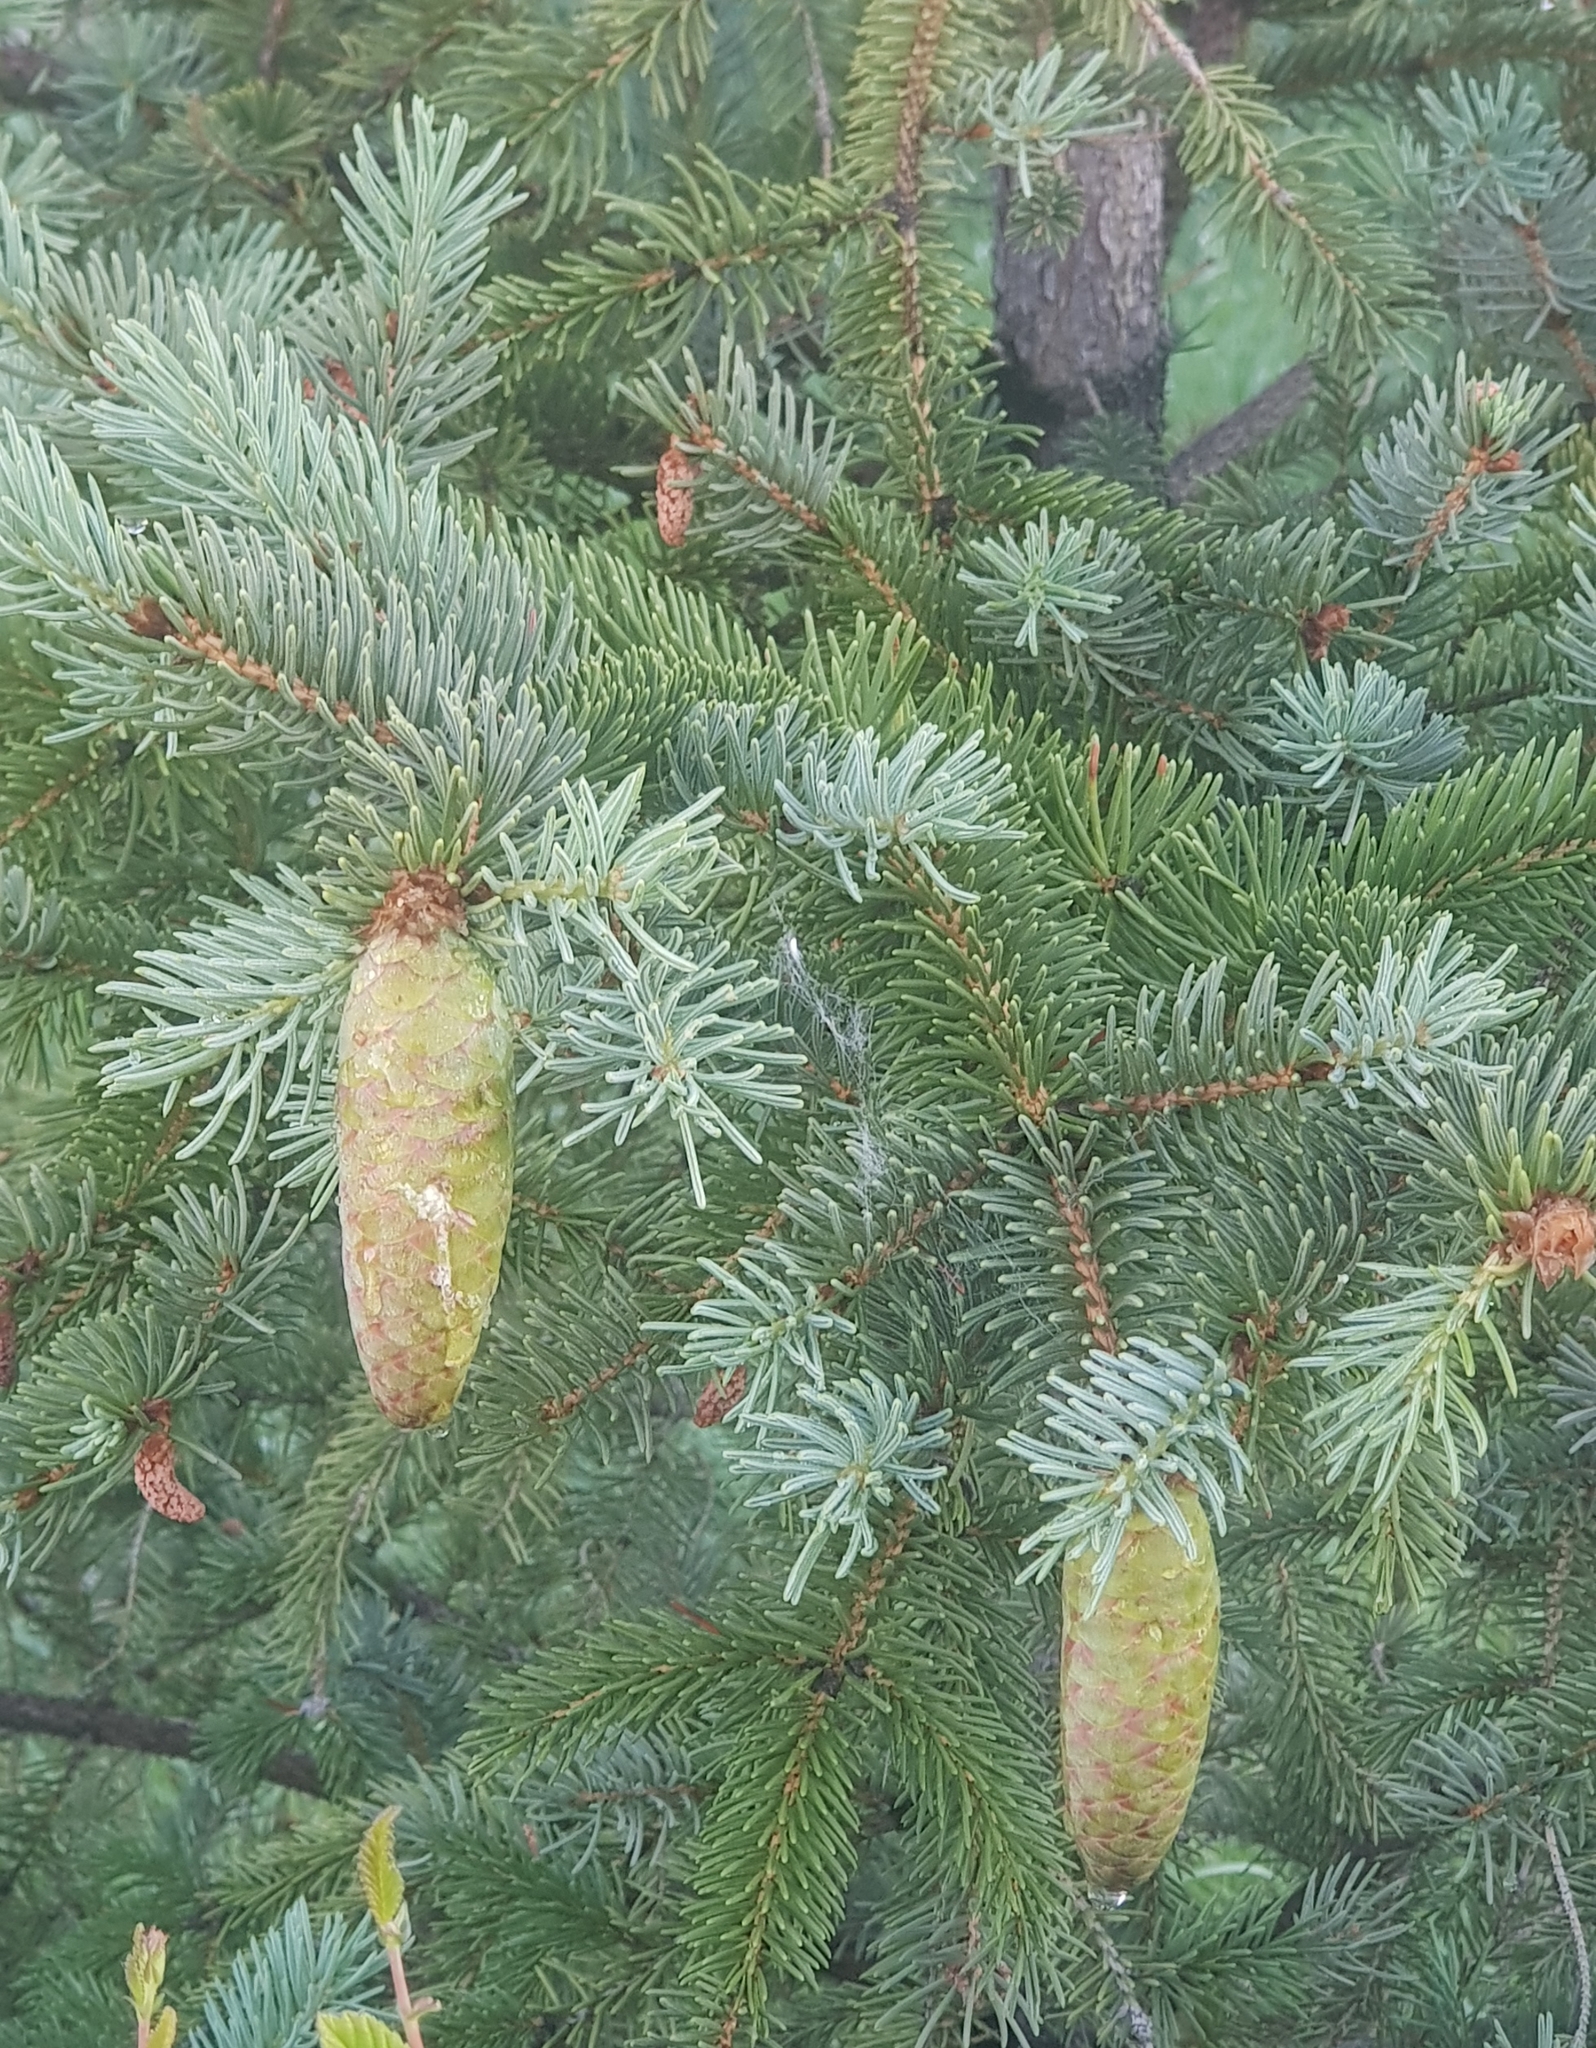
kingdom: Plantae
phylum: Tracheophyta
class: Pinopsida
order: Pinales
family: Pinaceae
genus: Picea
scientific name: Picea obovata
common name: Siberian spruce
